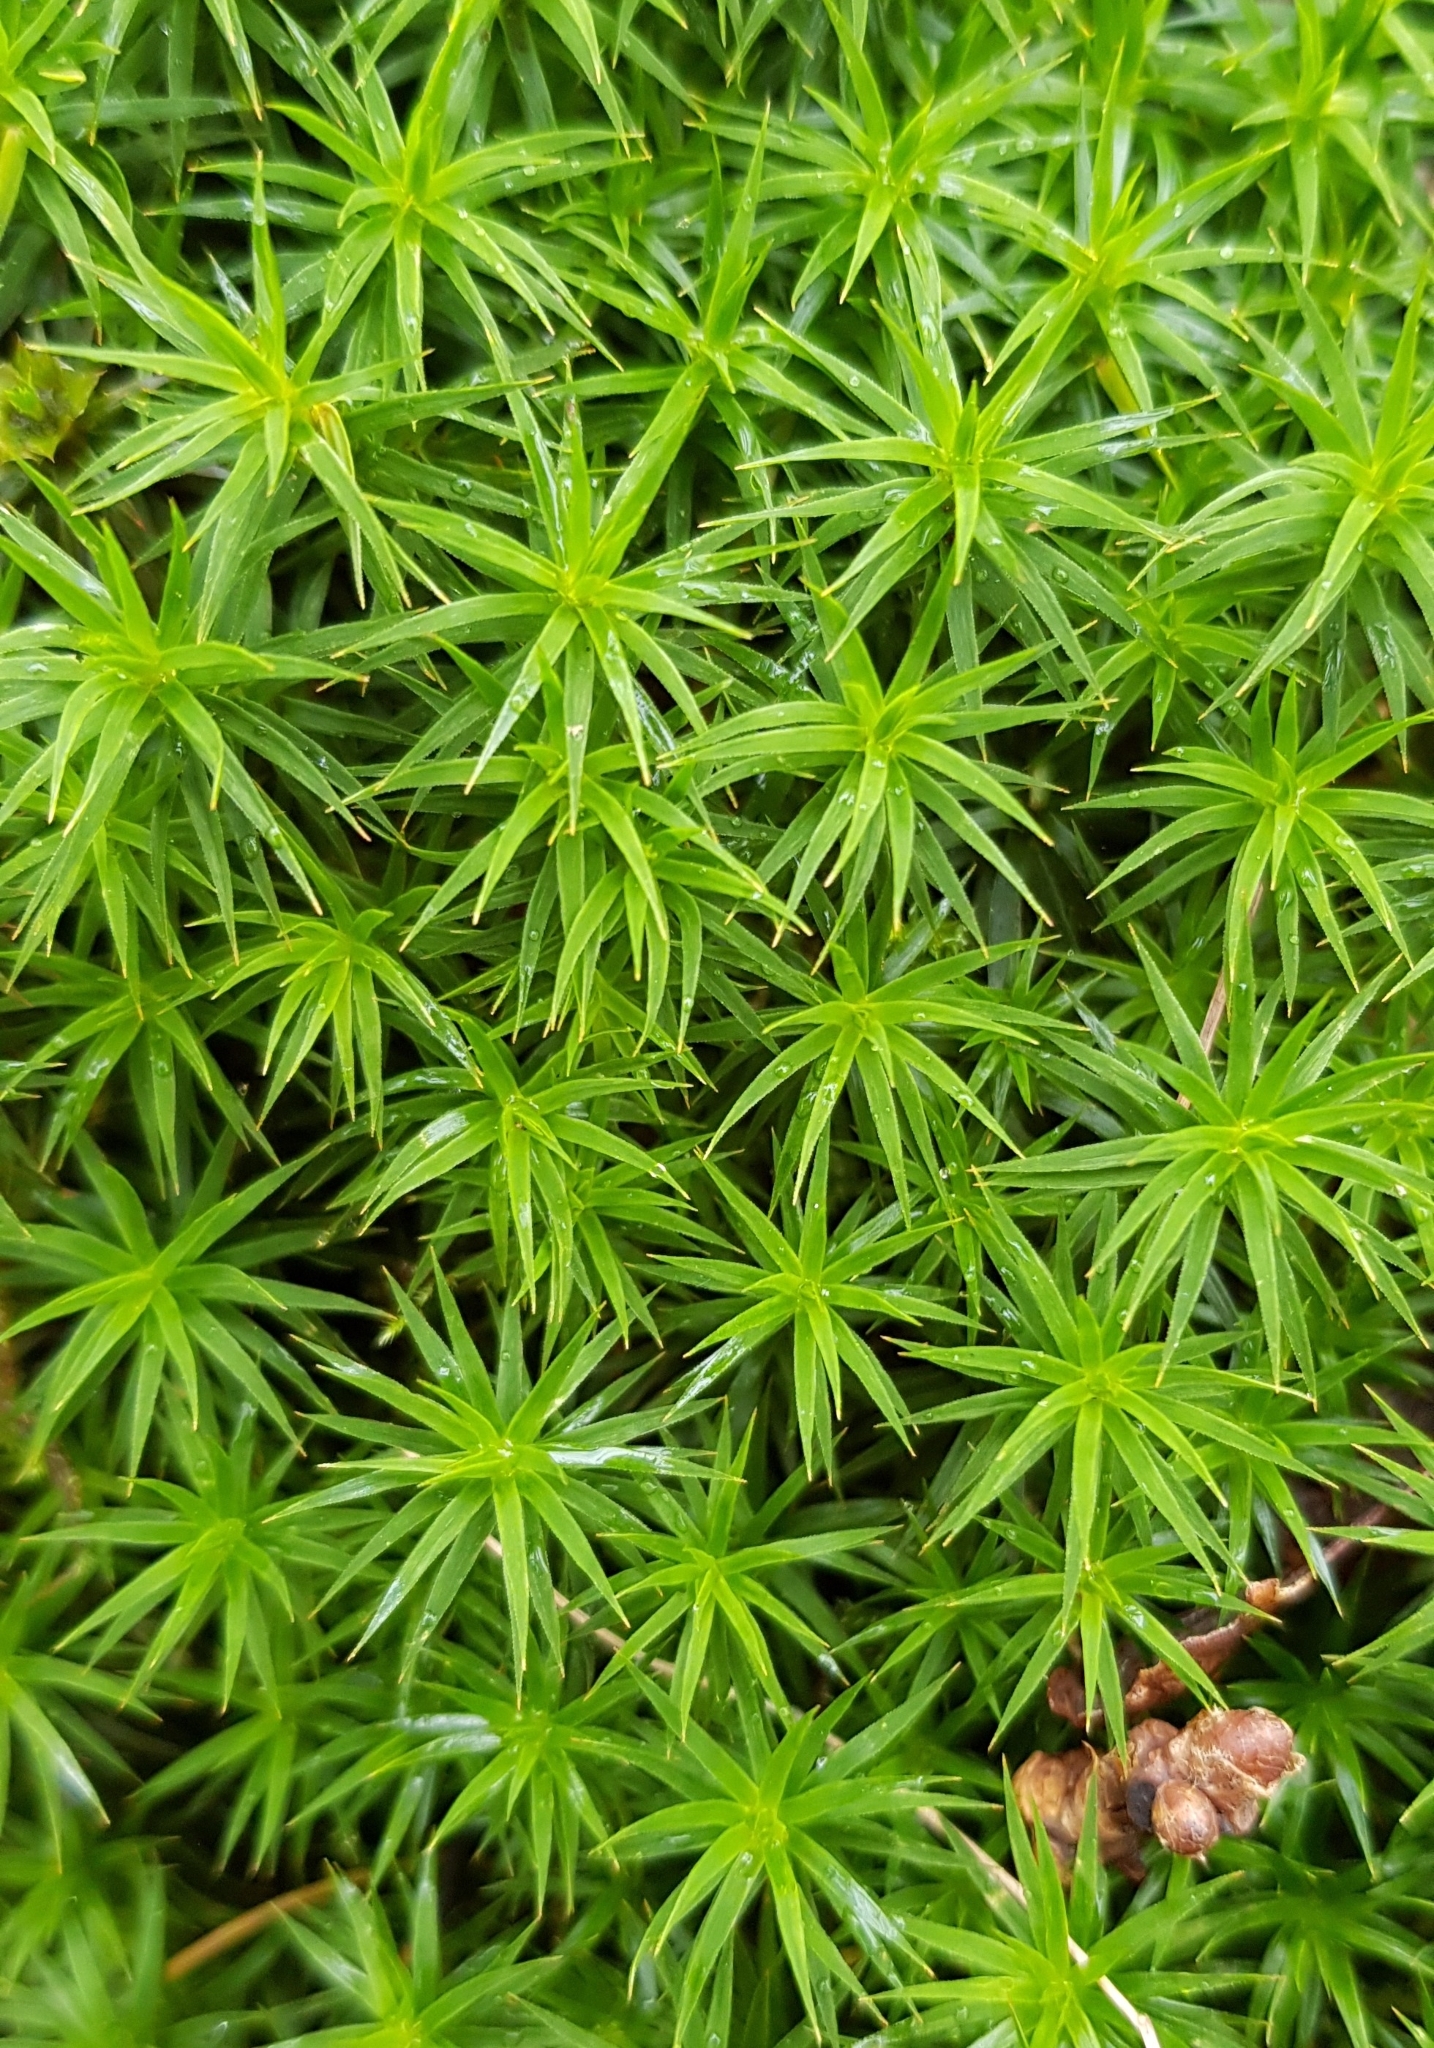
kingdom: Plantae
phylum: Bryophyta
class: Polytrichopsida
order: Polytrichales
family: Polytrichaceae
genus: Polytrichum
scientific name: Polytrichum formosum
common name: Bank haircap moss
